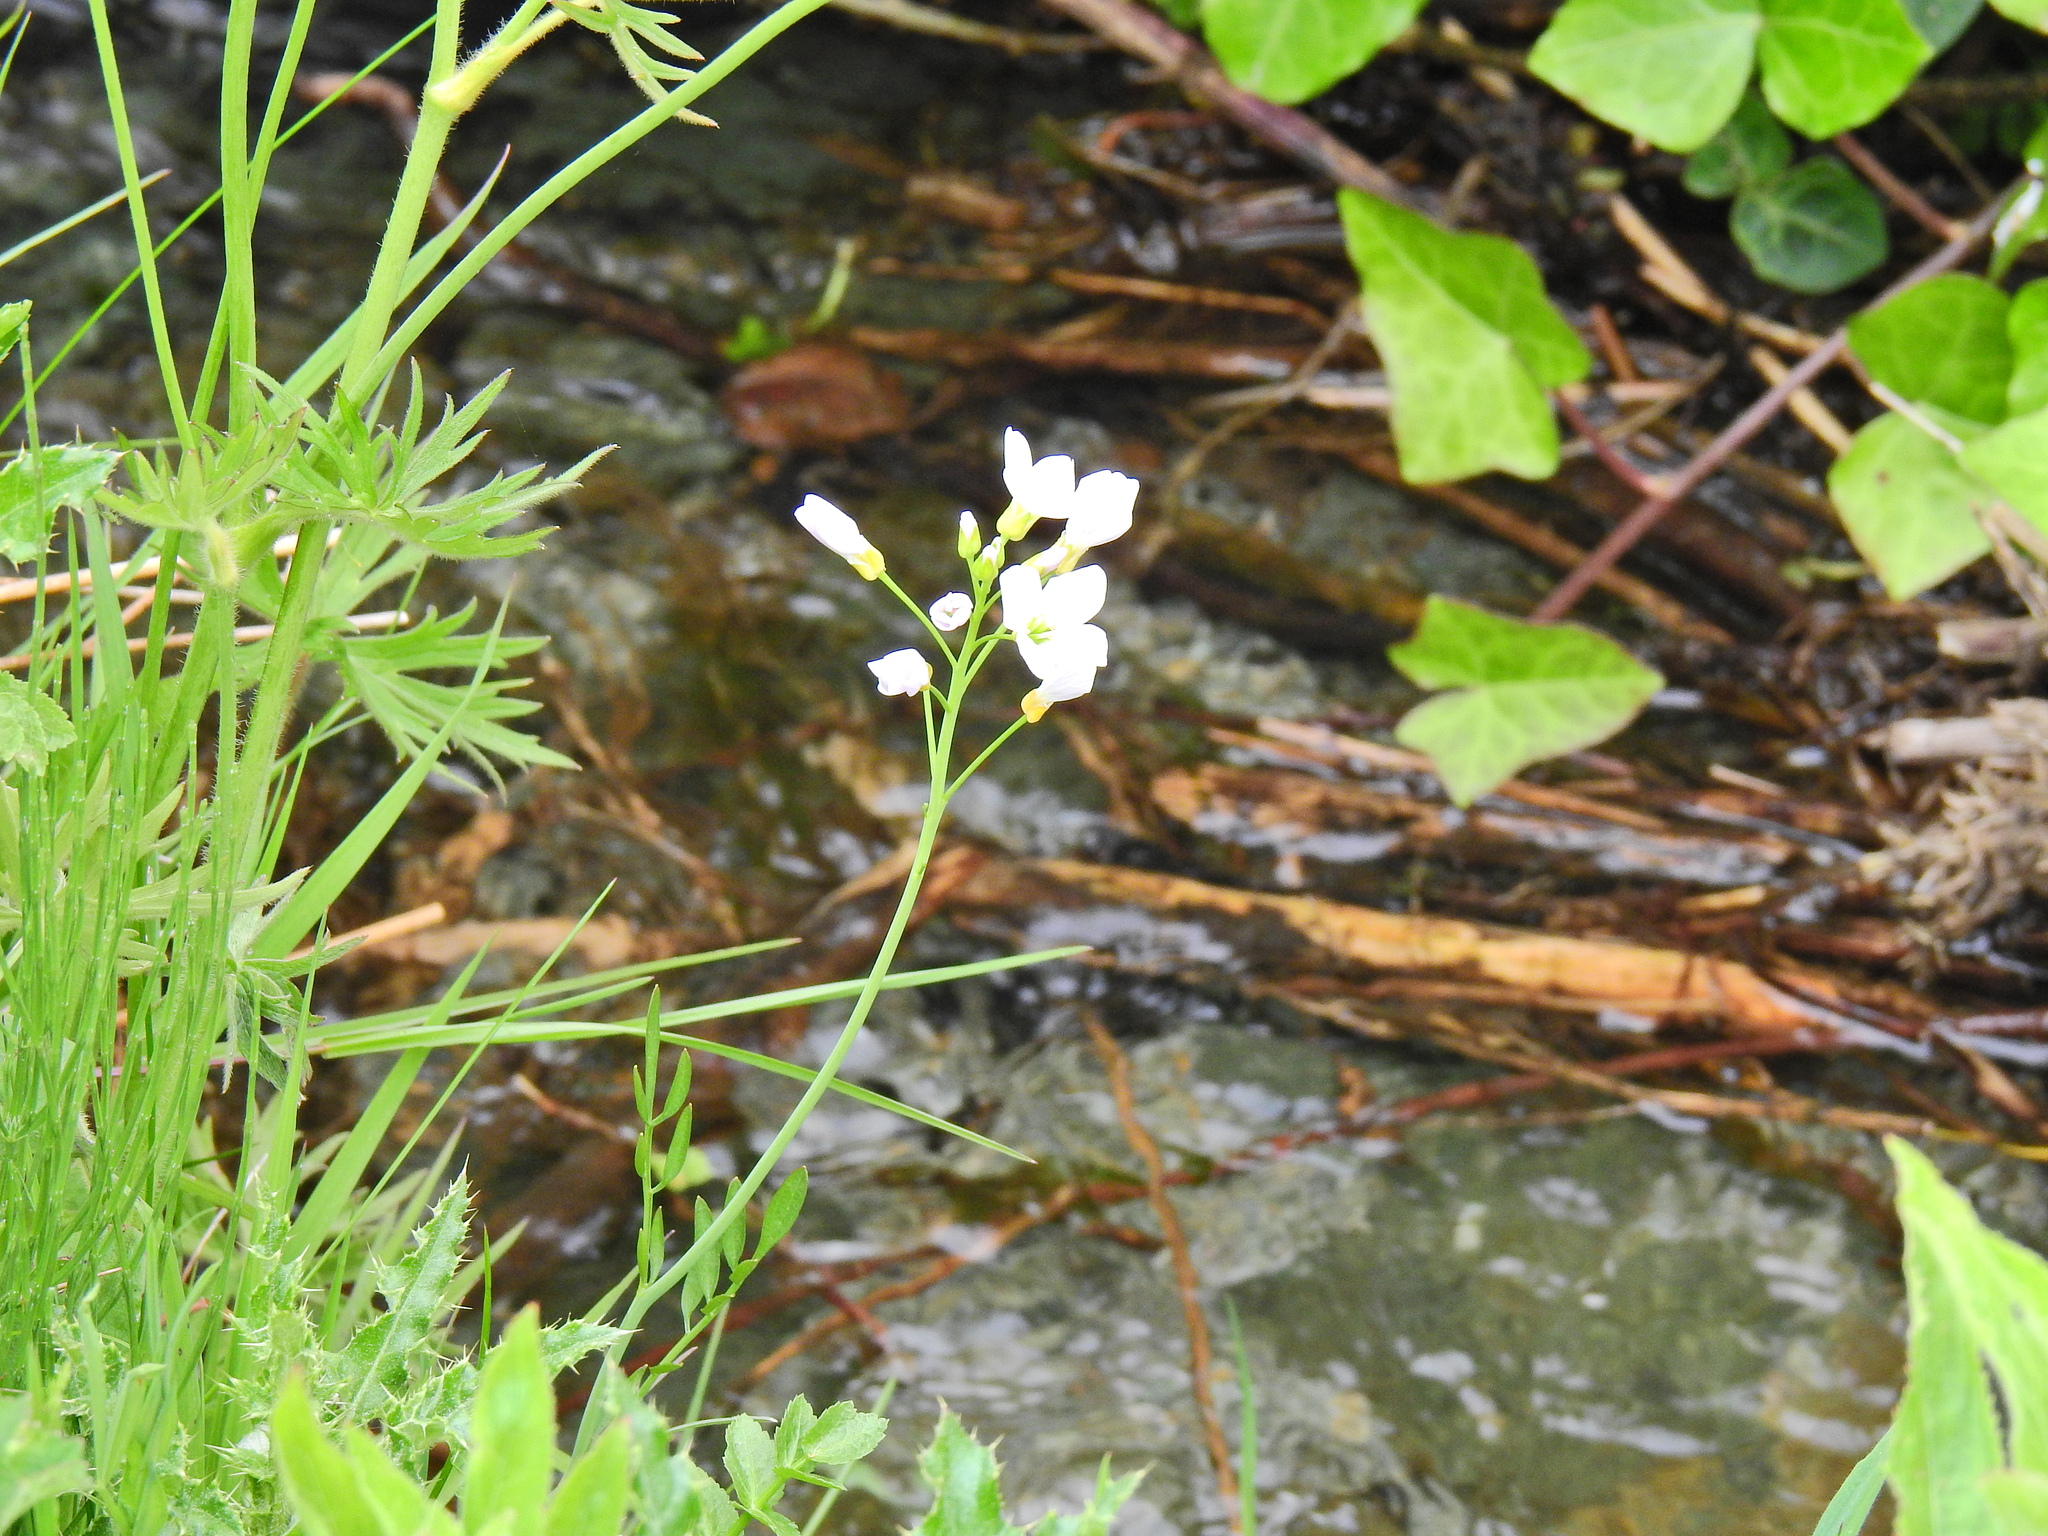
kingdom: Plantae
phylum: Tracheophyta
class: Magnoliopsida
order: Brassicales
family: Brassicaceae
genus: Cardamine
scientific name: Cardamine pratensis
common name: Cuckoo flower
